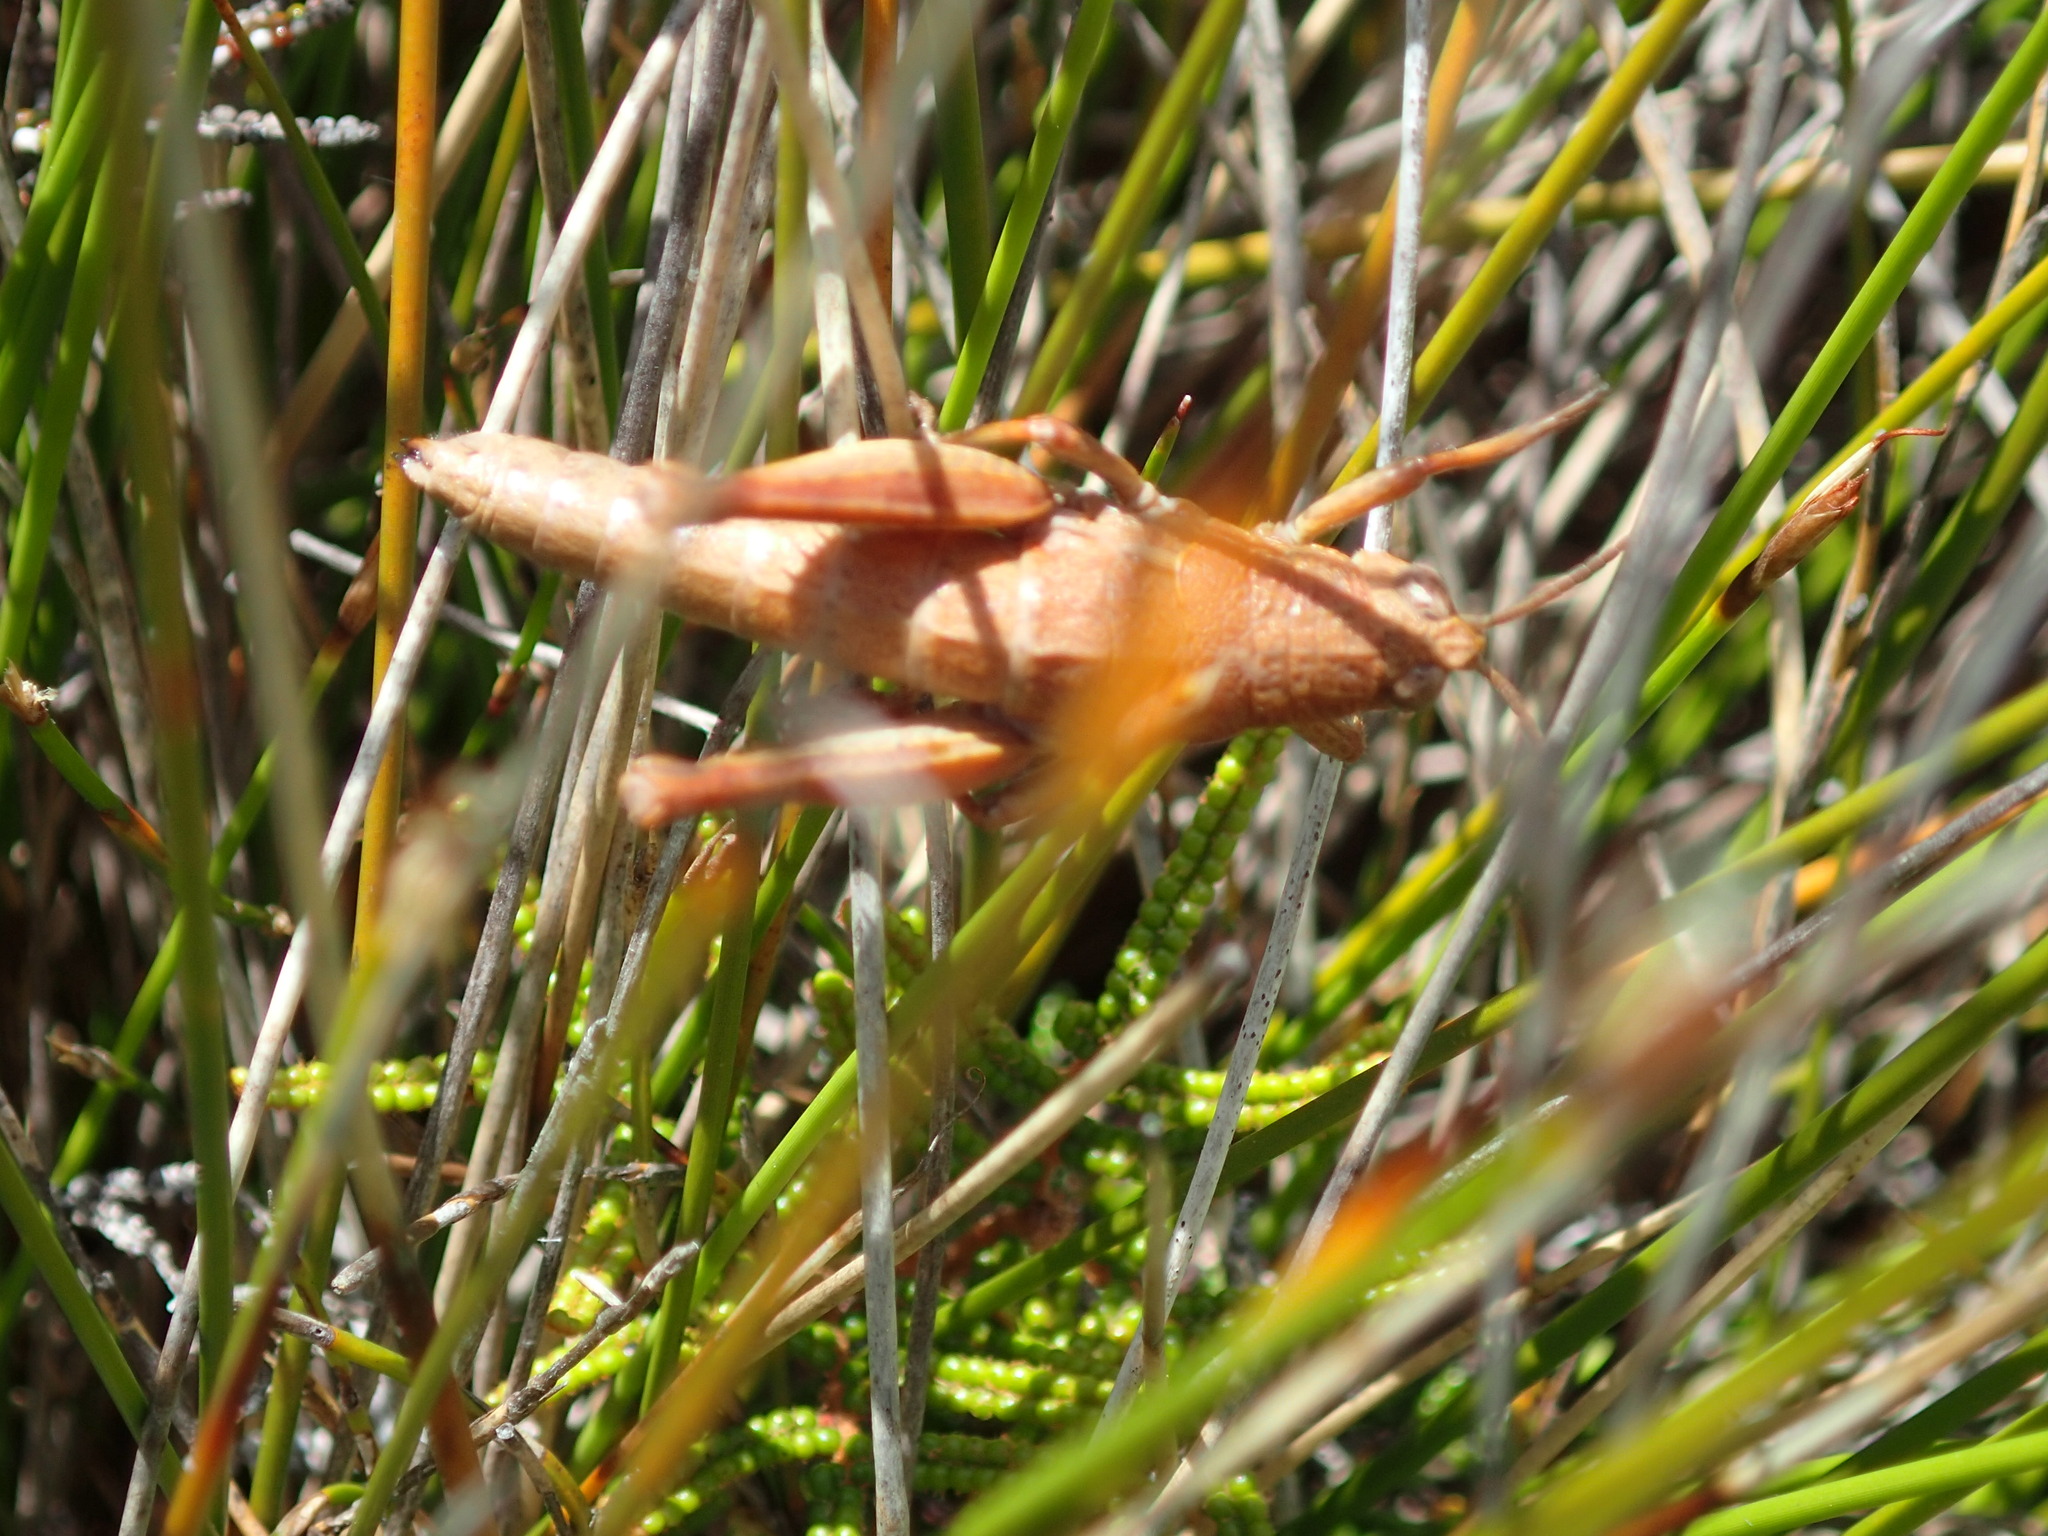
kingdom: Animalia
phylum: Arthropoda
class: Insecta
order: Orthoptera
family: Acrididae
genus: Tasmaniacris
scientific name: Tasmaniacris tasmaniensis
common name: Tasmanian grasshopper
